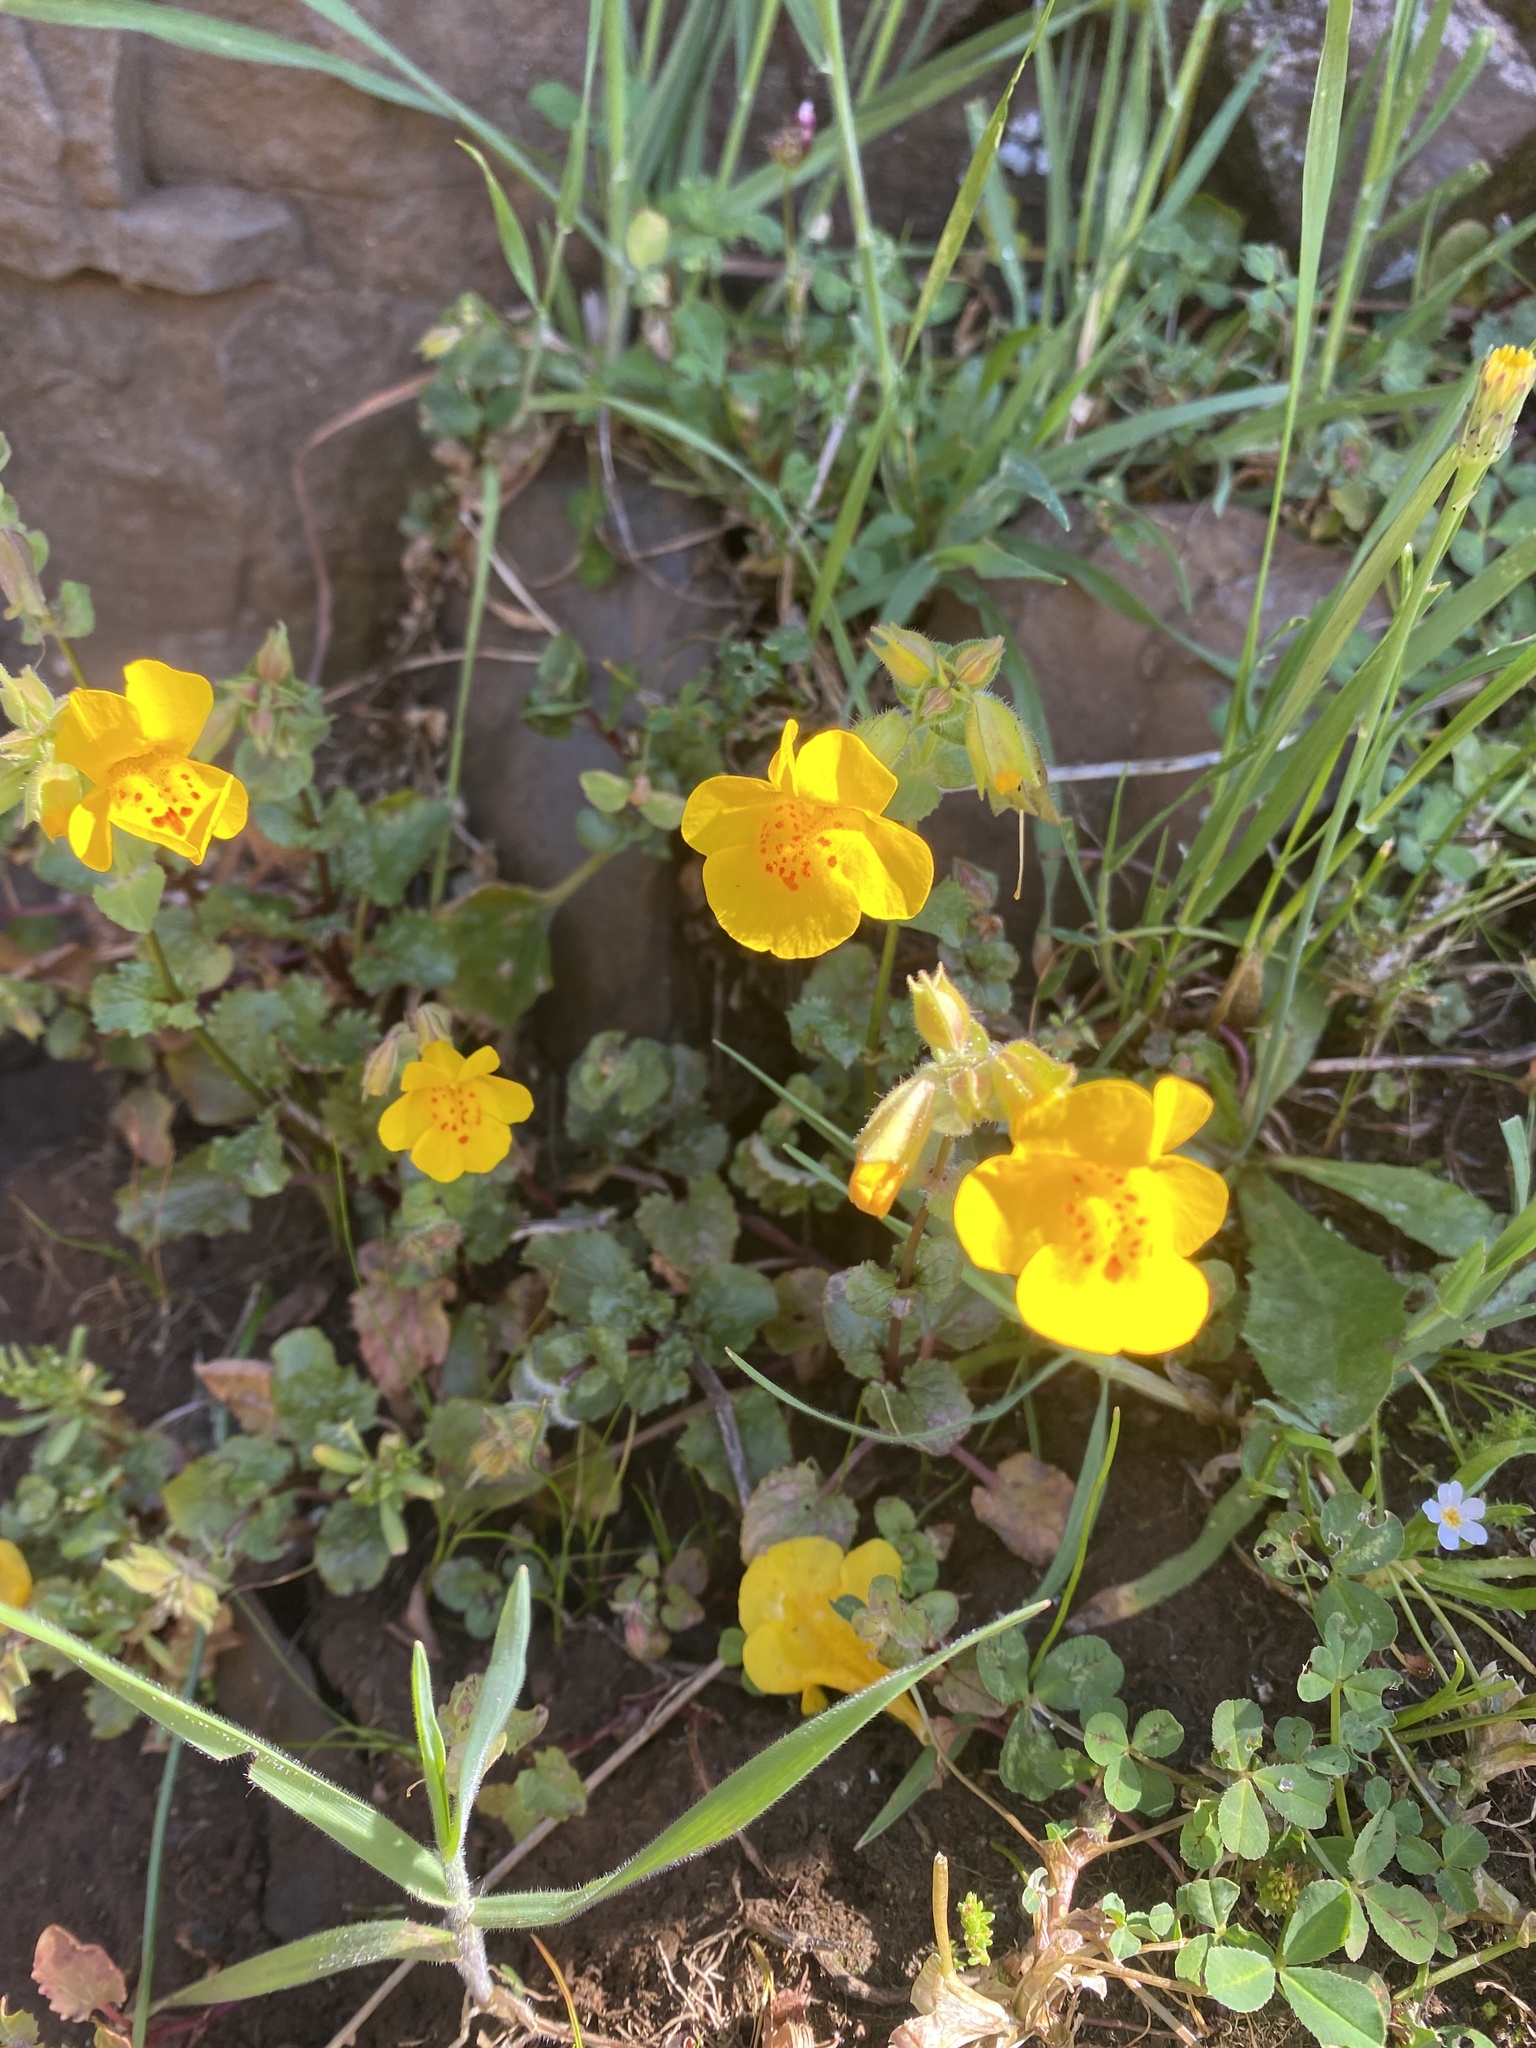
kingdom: Plantae
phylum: Tracheophyta
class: Magnoliopsida
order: Lamiales
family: Phrymaceae
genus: Erythranthe
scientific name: Erythranthe guttata
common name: Monkeyflower
